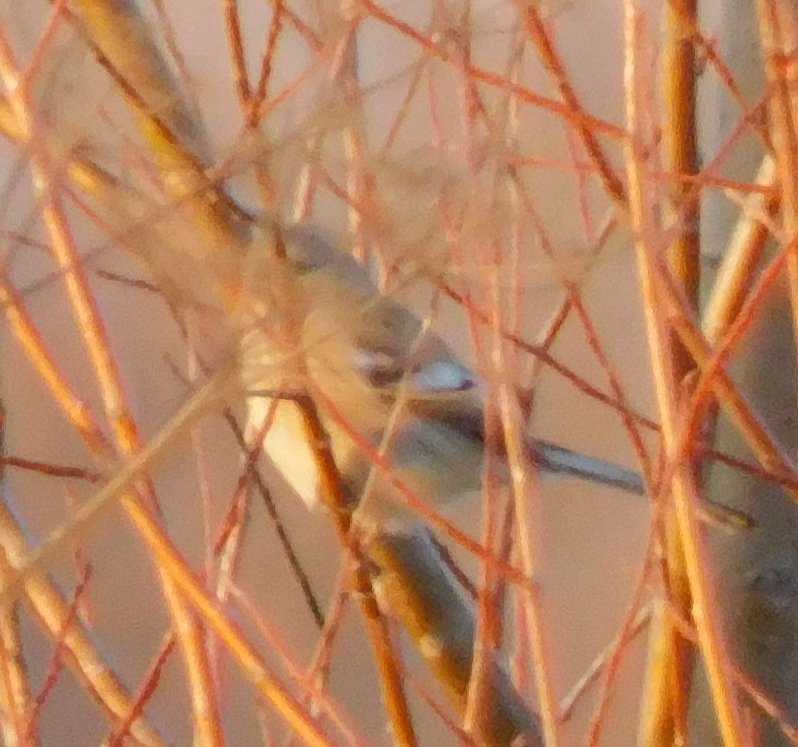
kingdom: Animalia
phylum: Chordata
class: Aves
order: Passeriformes
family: Fringillidae
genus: Carpodacus
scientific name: Carpodacus sibiricus
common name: Long-tailed rosefinch
